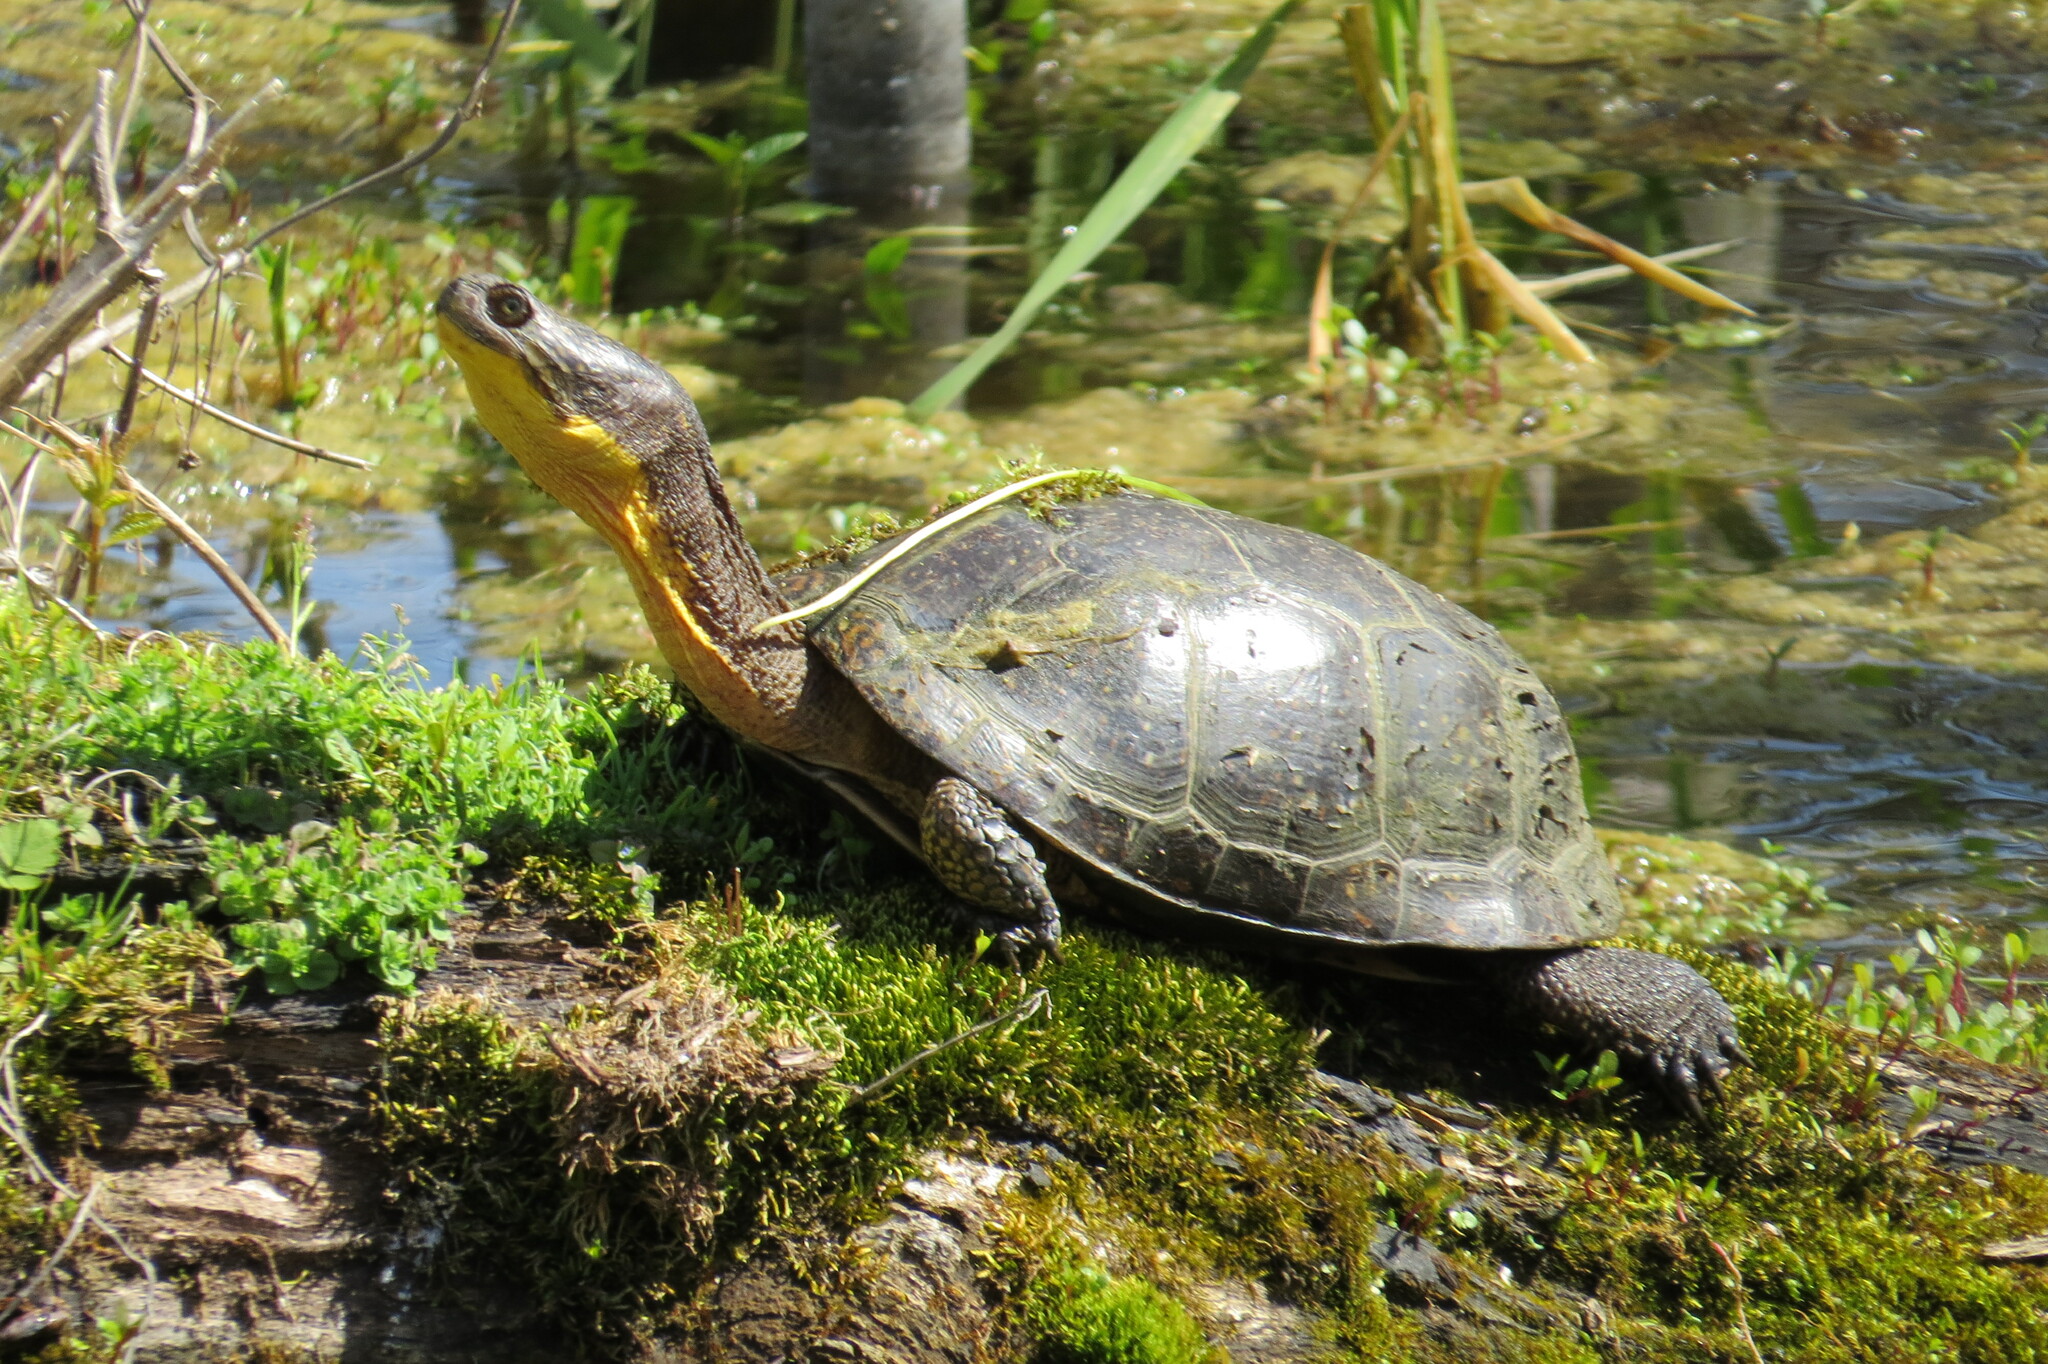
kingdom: Animalia
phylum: Chordata
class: Testudines
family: Emydidae
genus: Emys
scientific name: Emys blandingii
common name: Blanding's turtle
